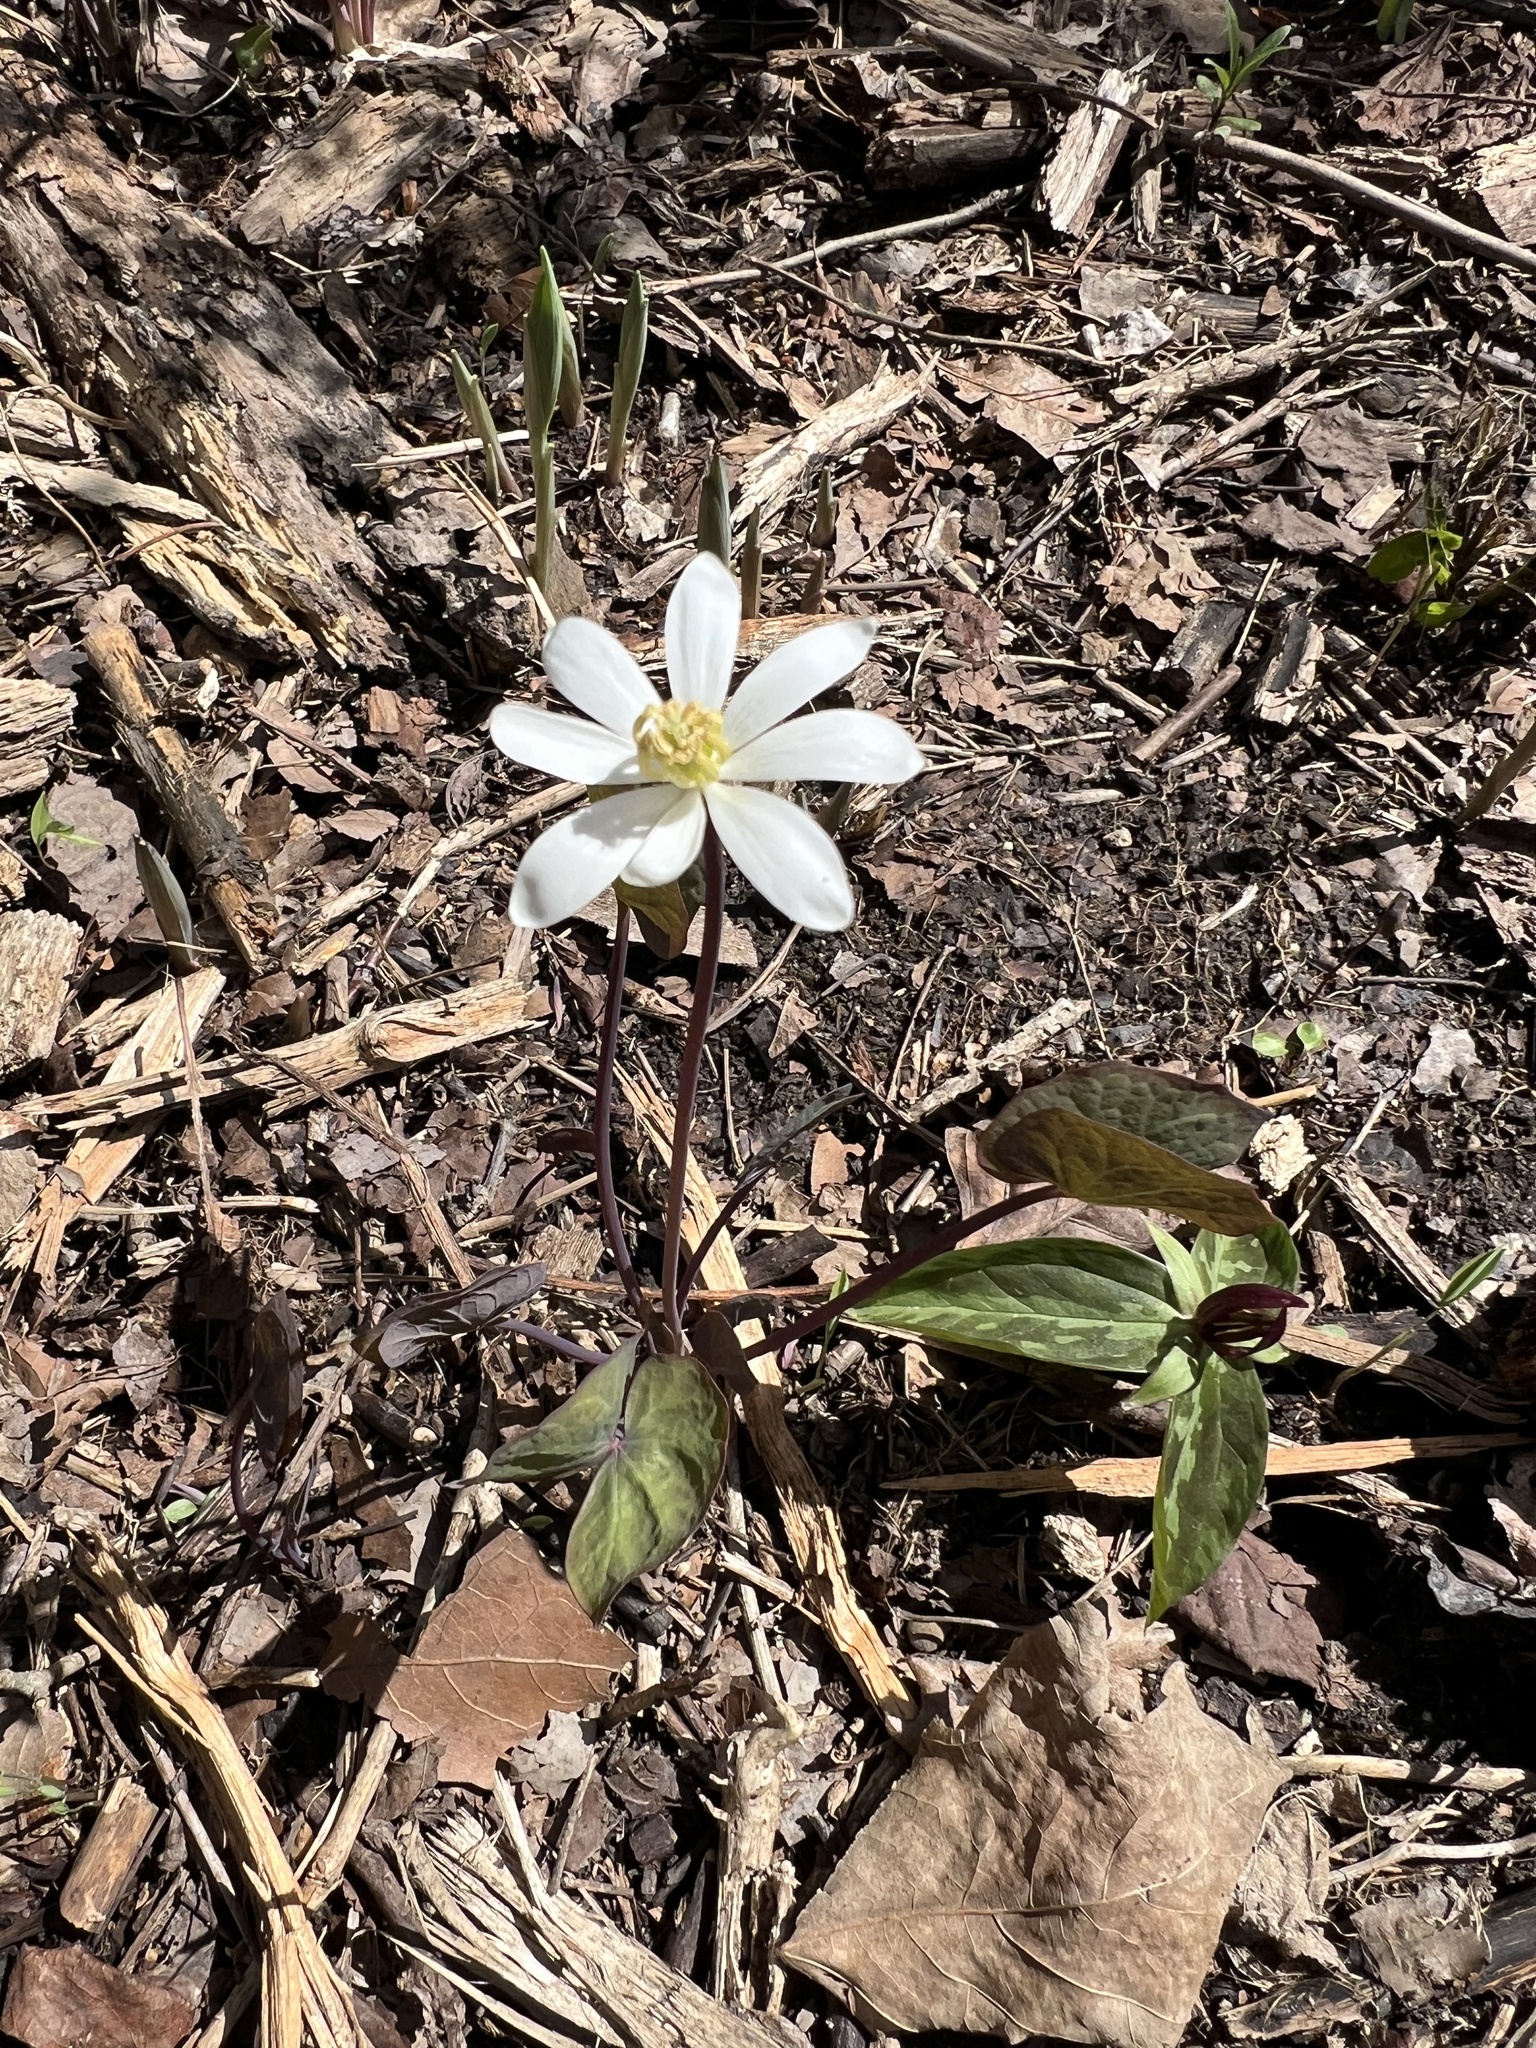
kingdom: Plantae
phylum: Tracheophyta
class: Magnoliopsida
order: Ranunculales
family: Berberidaceae
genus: Jeffersonia
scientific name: Jeffersonia diphylla
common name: Rheumatism-root
